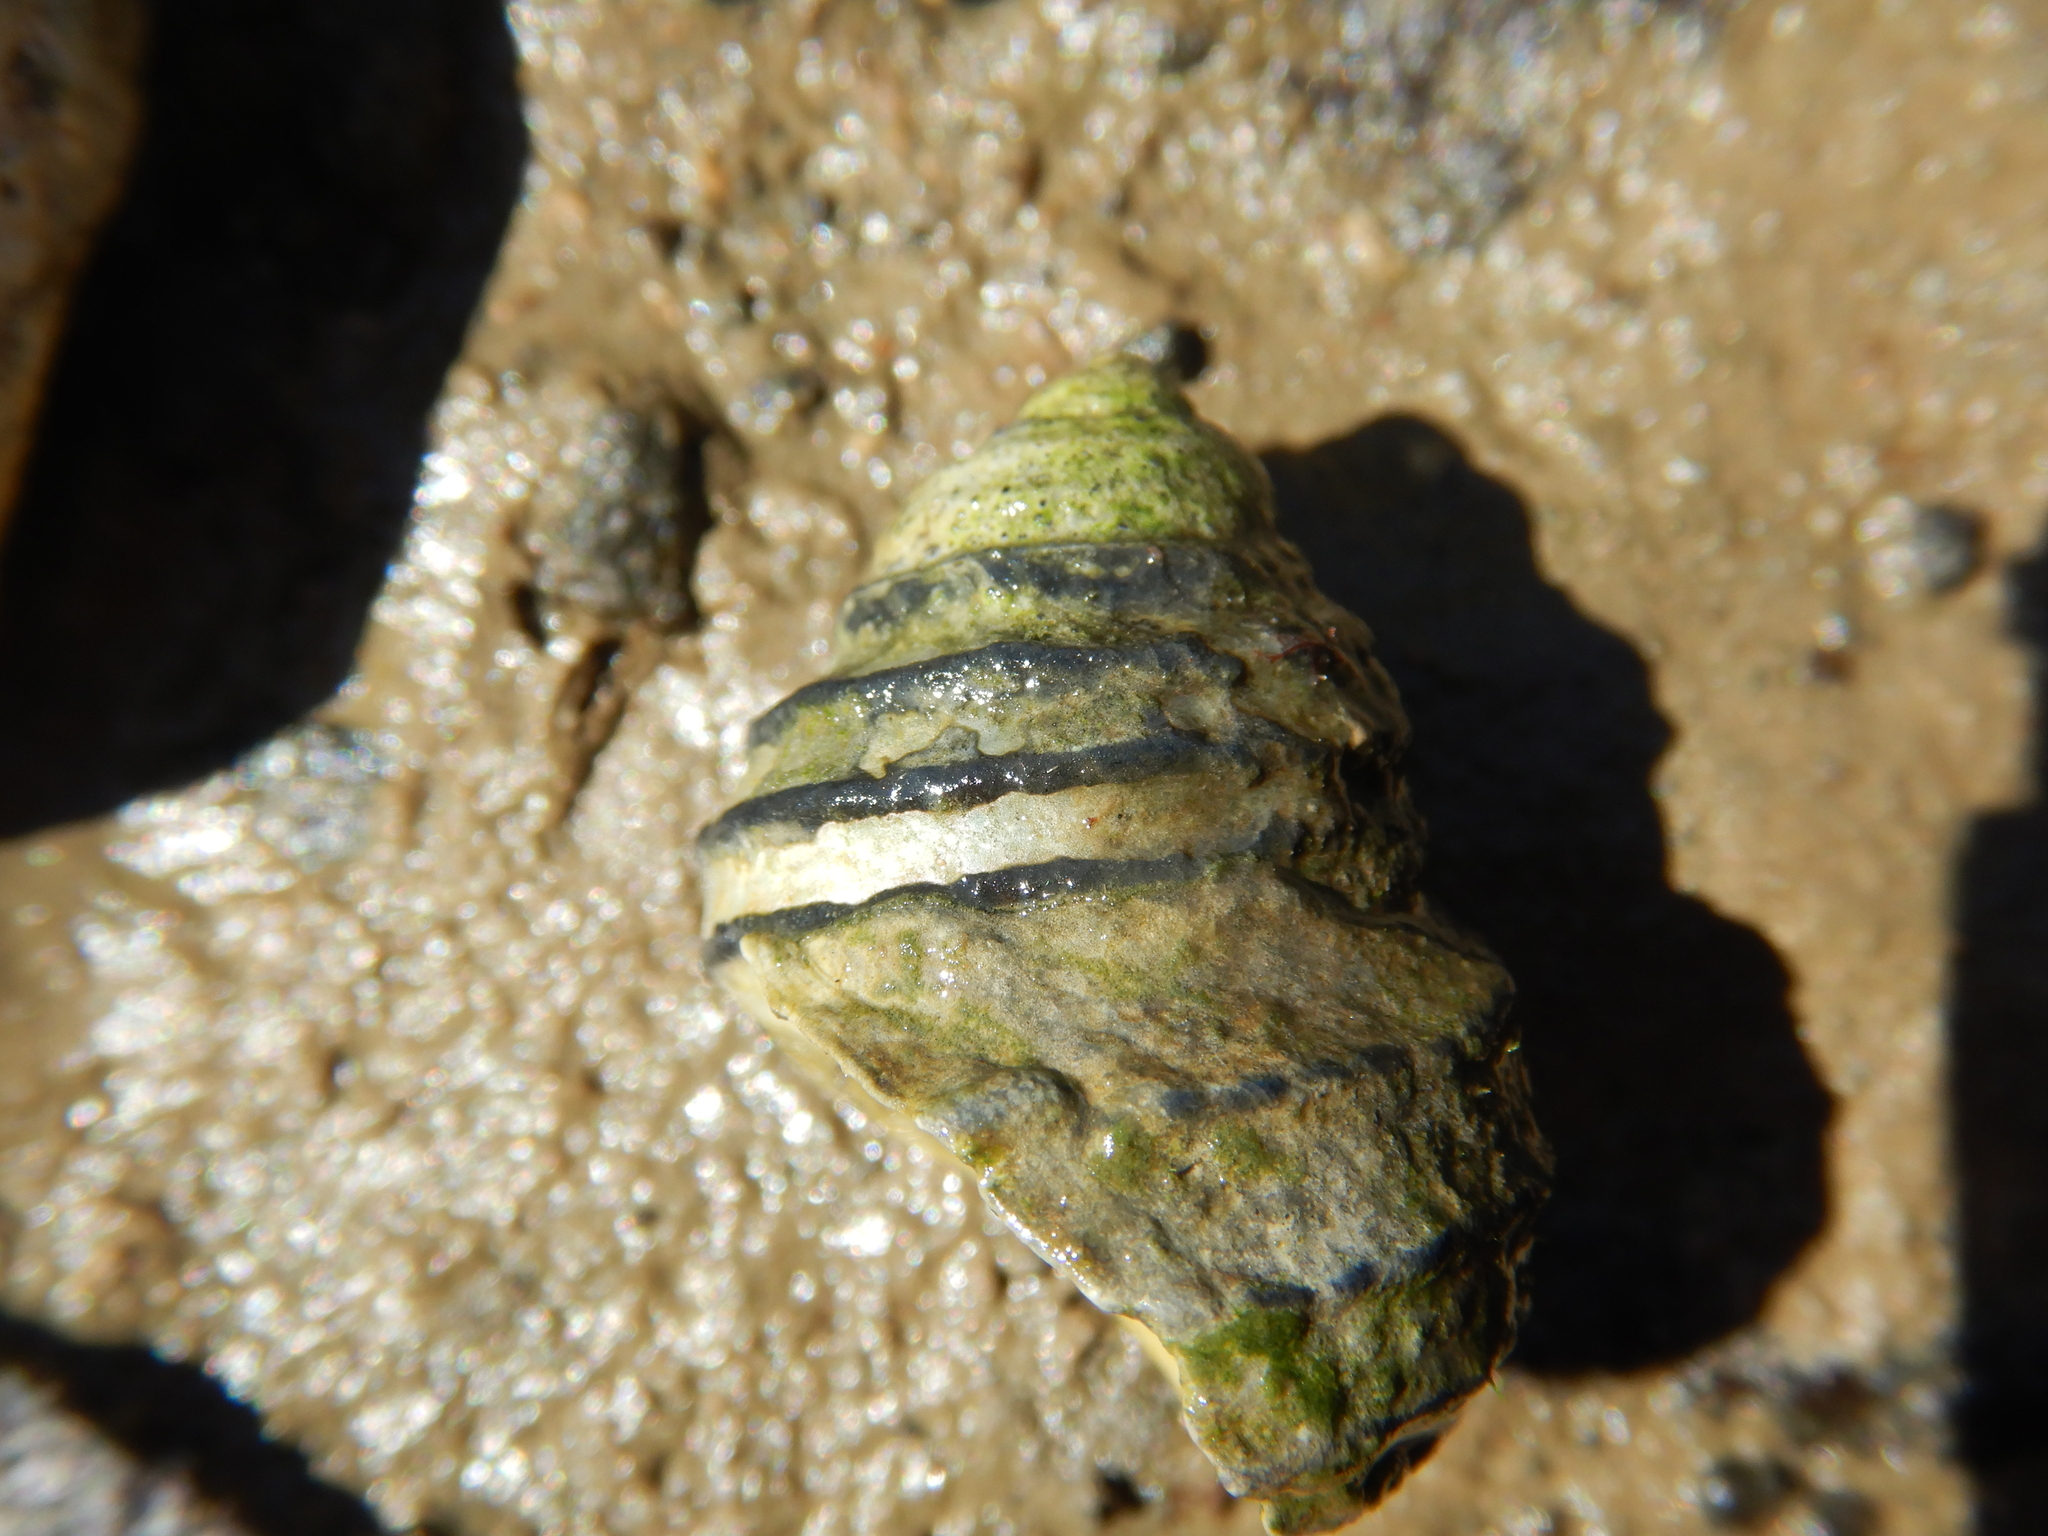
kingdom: Animalia
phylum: Mollusca
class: Gastropoda
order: Trochida
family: Trochidae
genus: Austrocochlea
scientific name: Austrocochlea constricta
